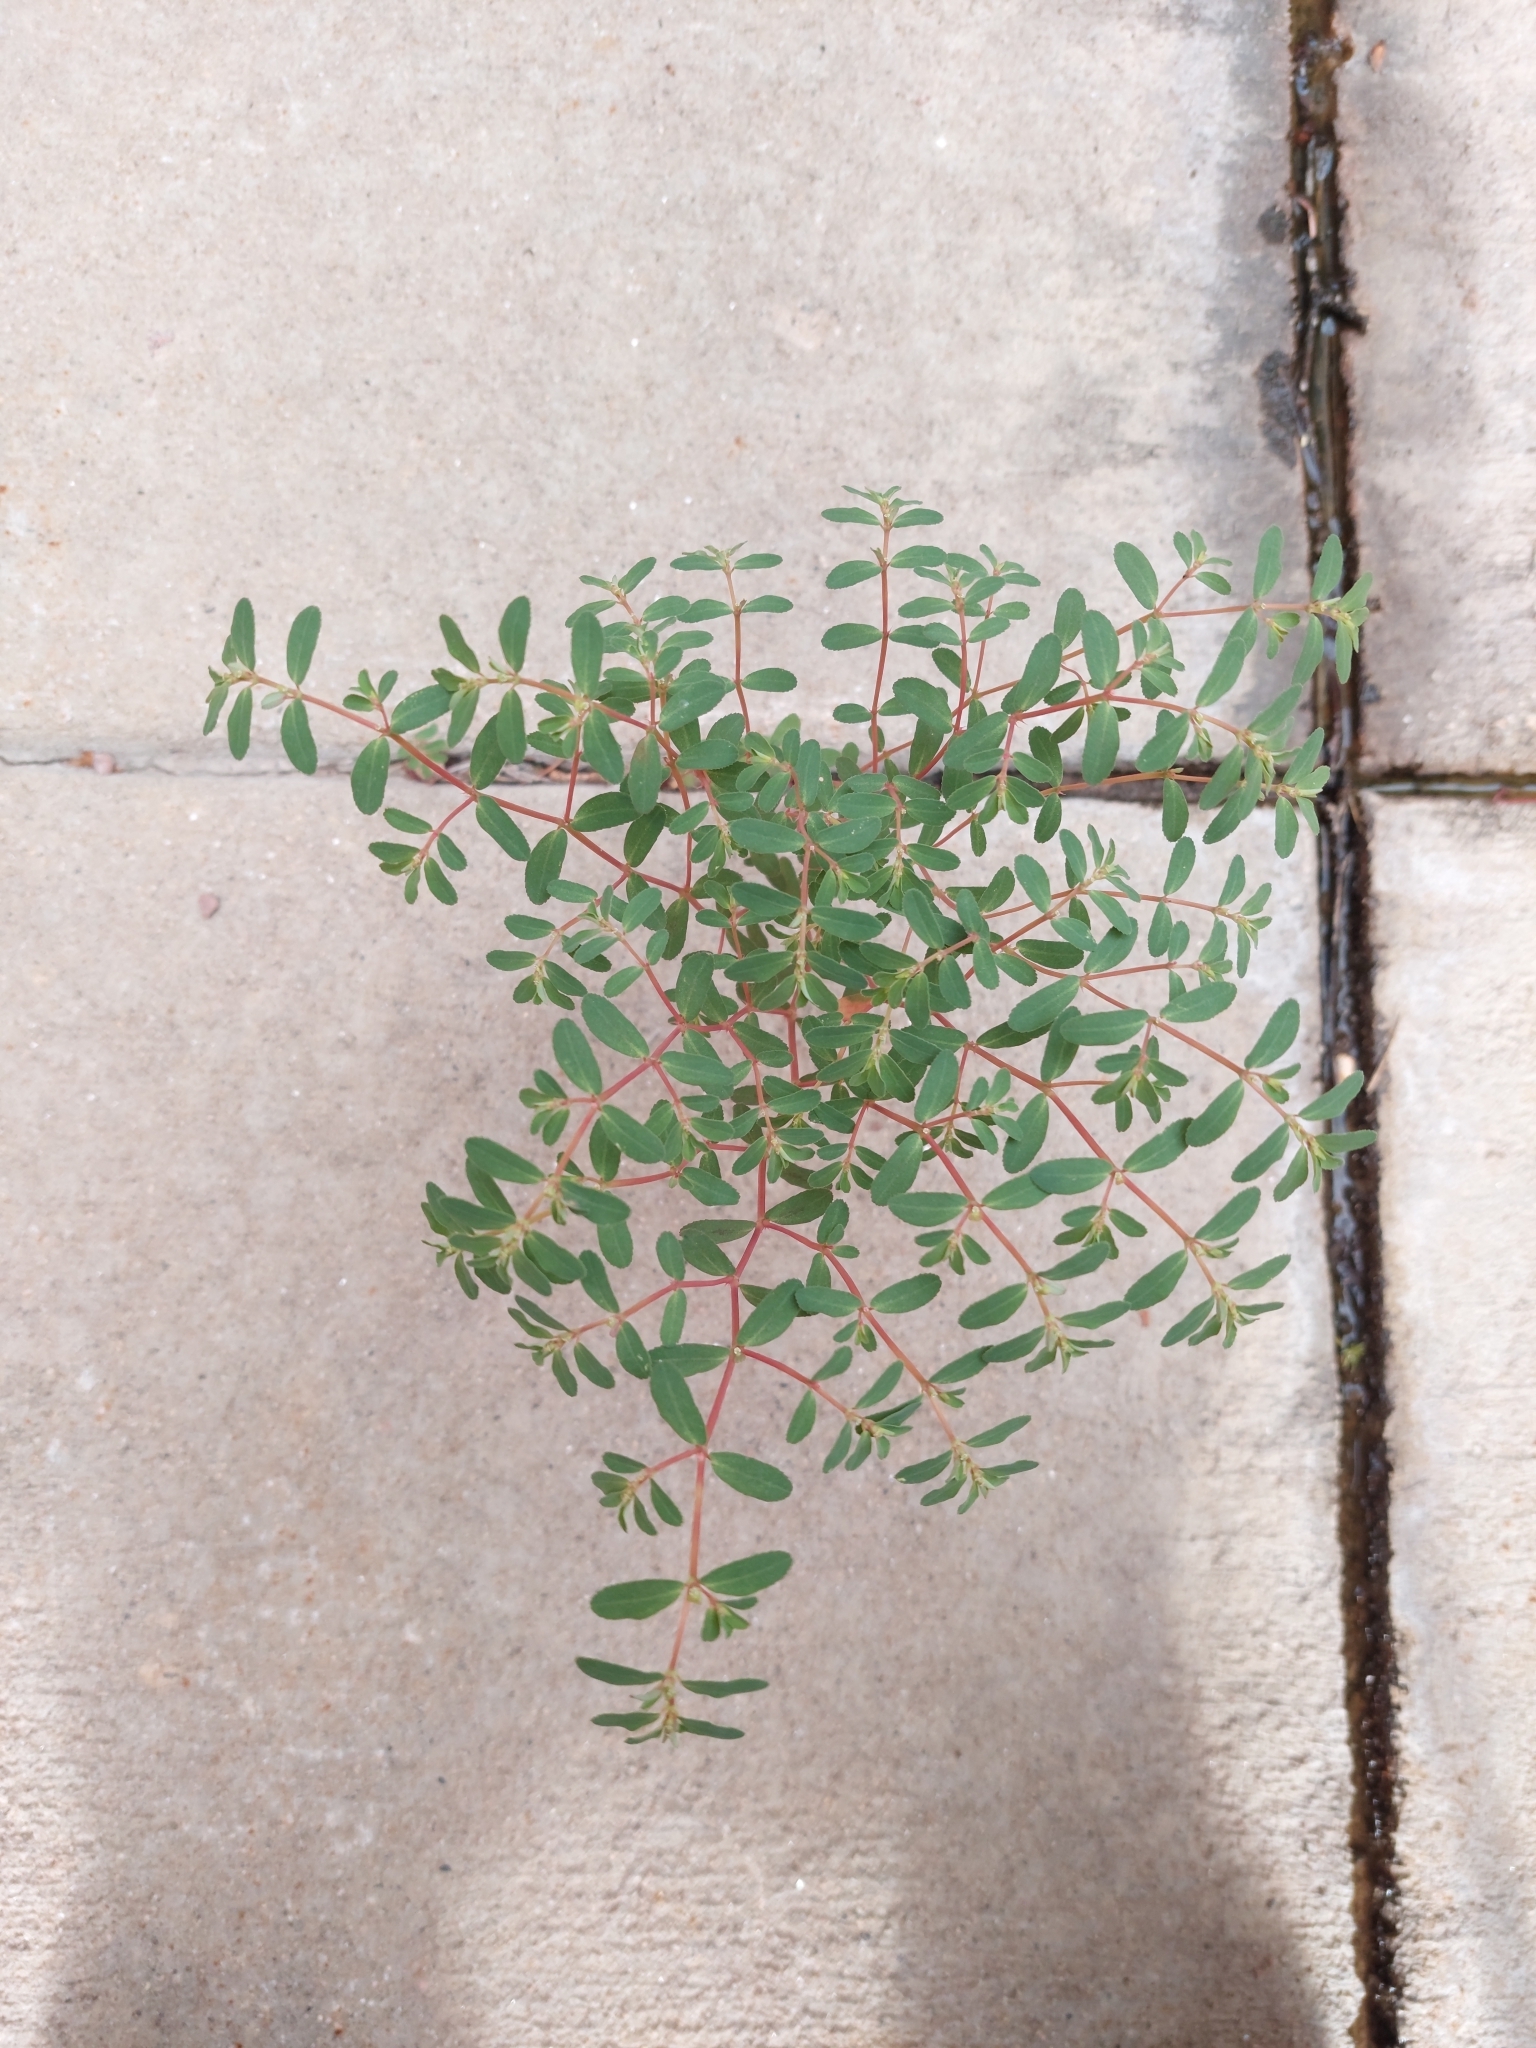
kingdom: Plantae
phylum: Tracheophyta
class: Magnoliopsida
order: Malpighiales
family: Euphorbiaceae
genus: Euphorbia
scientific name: Euphorbia serpillifolia
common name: Thyme-leaf spurge
